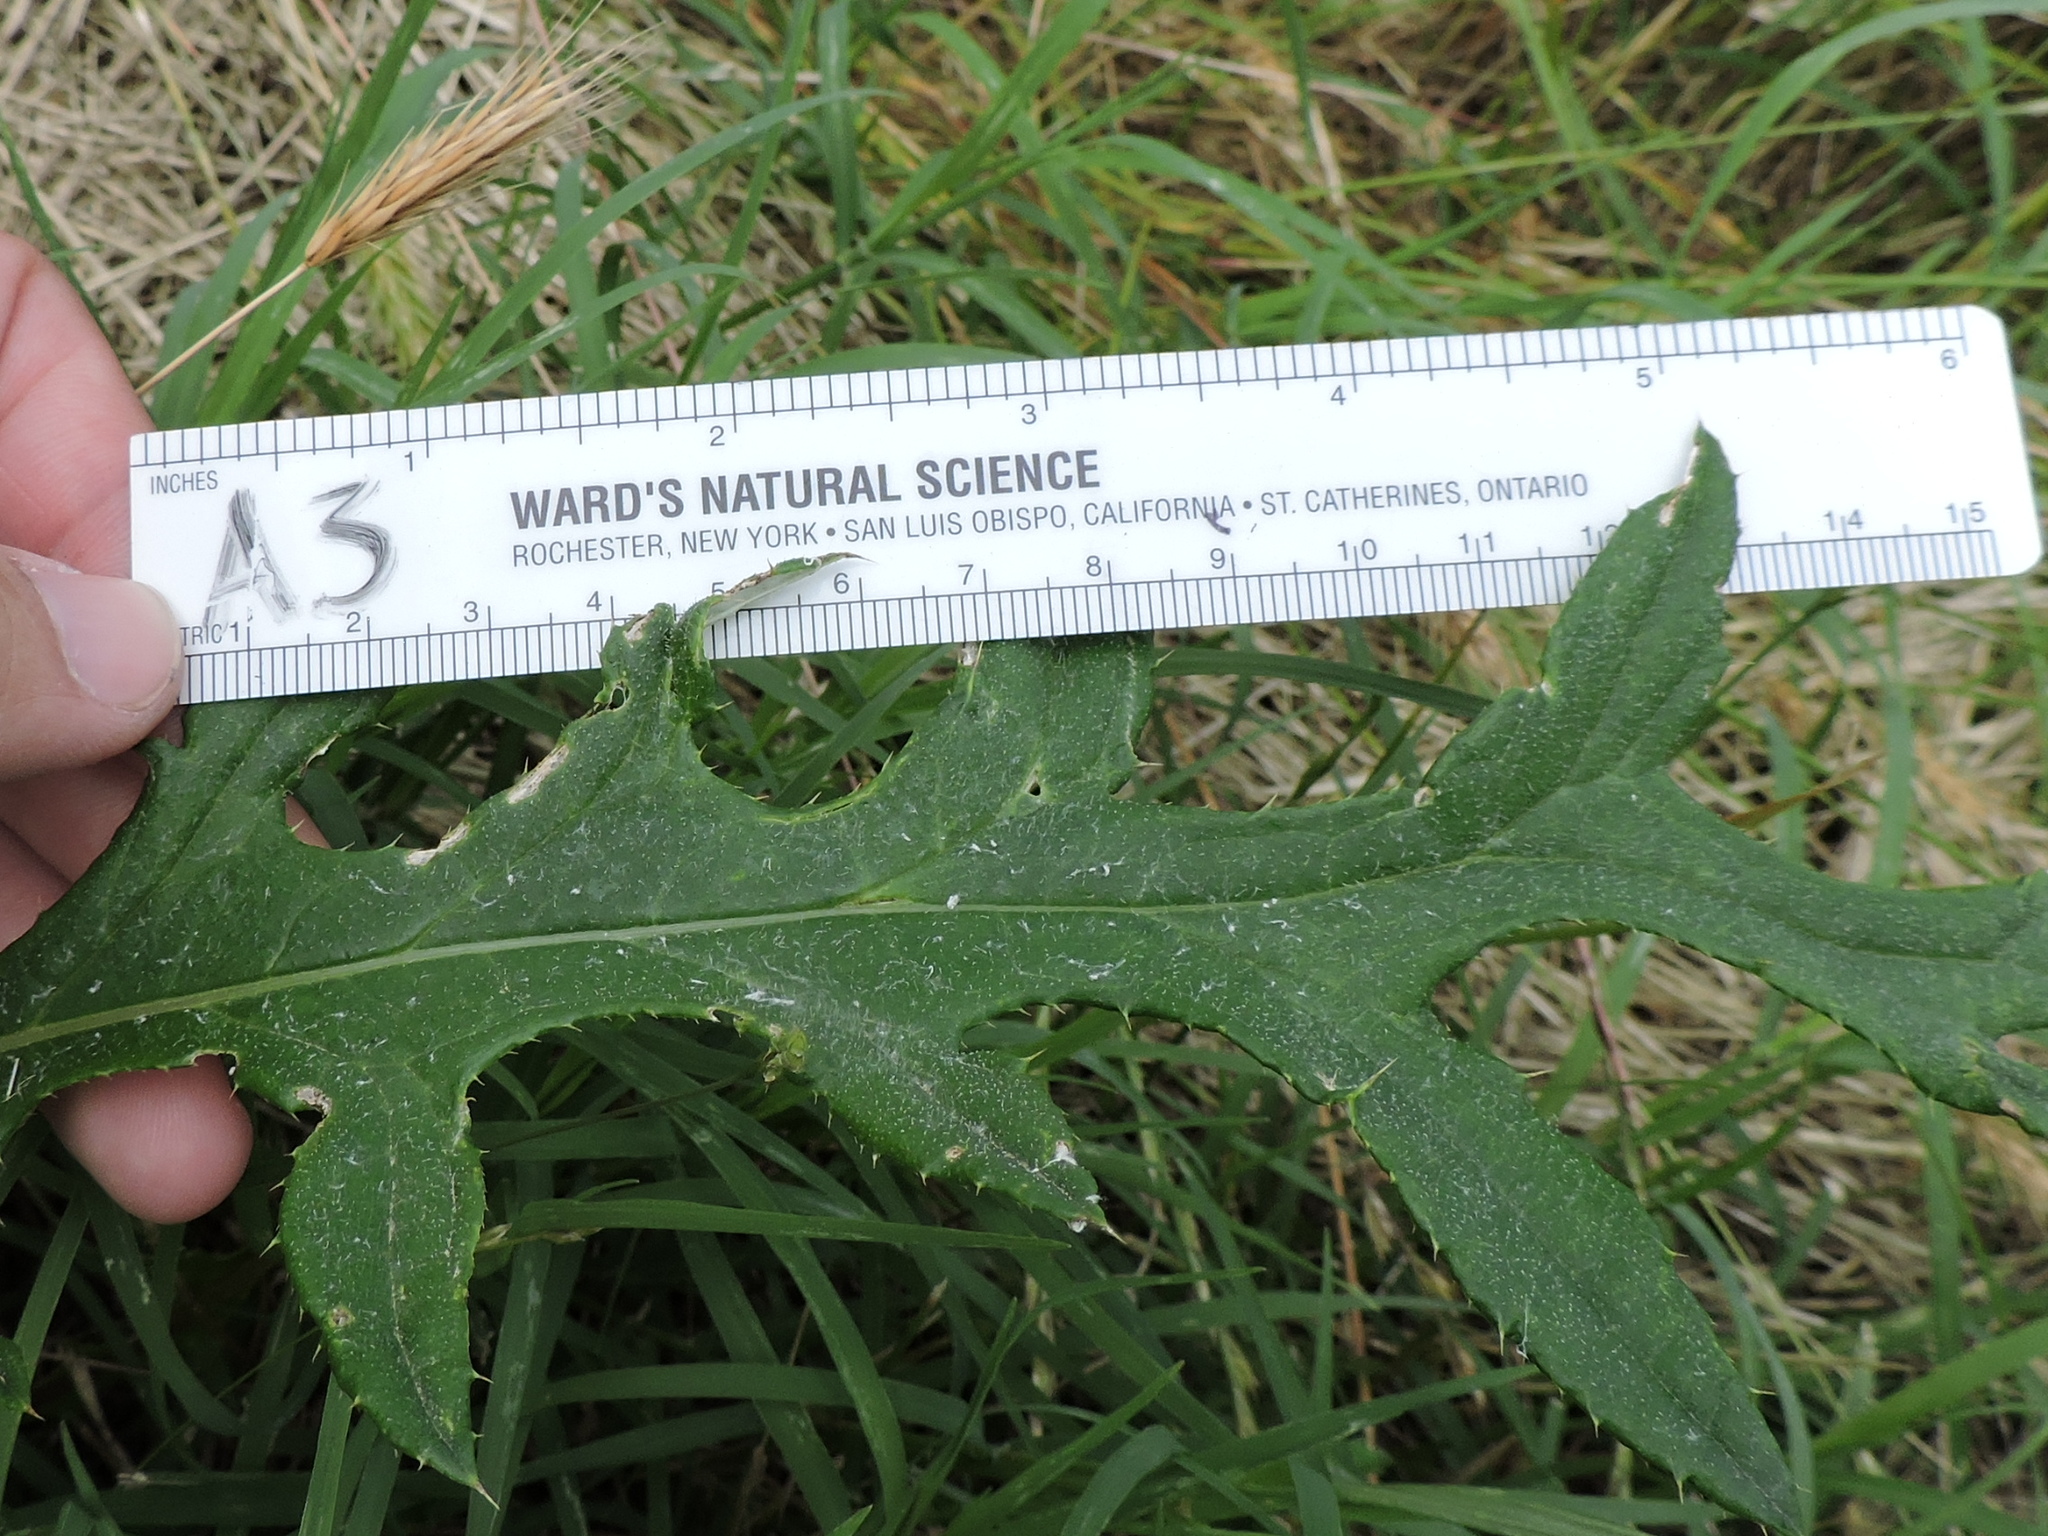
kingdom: Plantae
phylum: Tracheophyta
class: Magnoliopsida
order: Asterales
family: Asteraceae
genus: Cirsium
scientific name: Cirsium undulatum
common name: Pasture thistle
